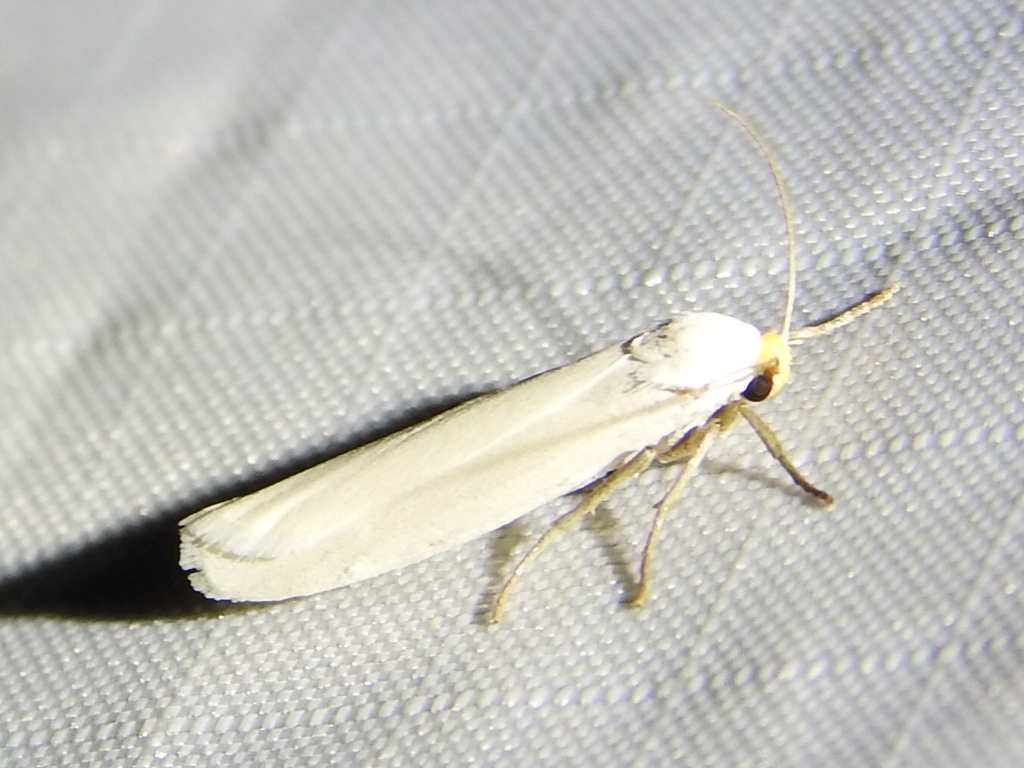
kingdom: Animalia
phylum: Arthropoda
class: Insecta
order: Lepidoptera
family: Erebidae
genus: Crambidia
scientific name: Crambidia cephalica
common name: Yellow-headed lichen moth
